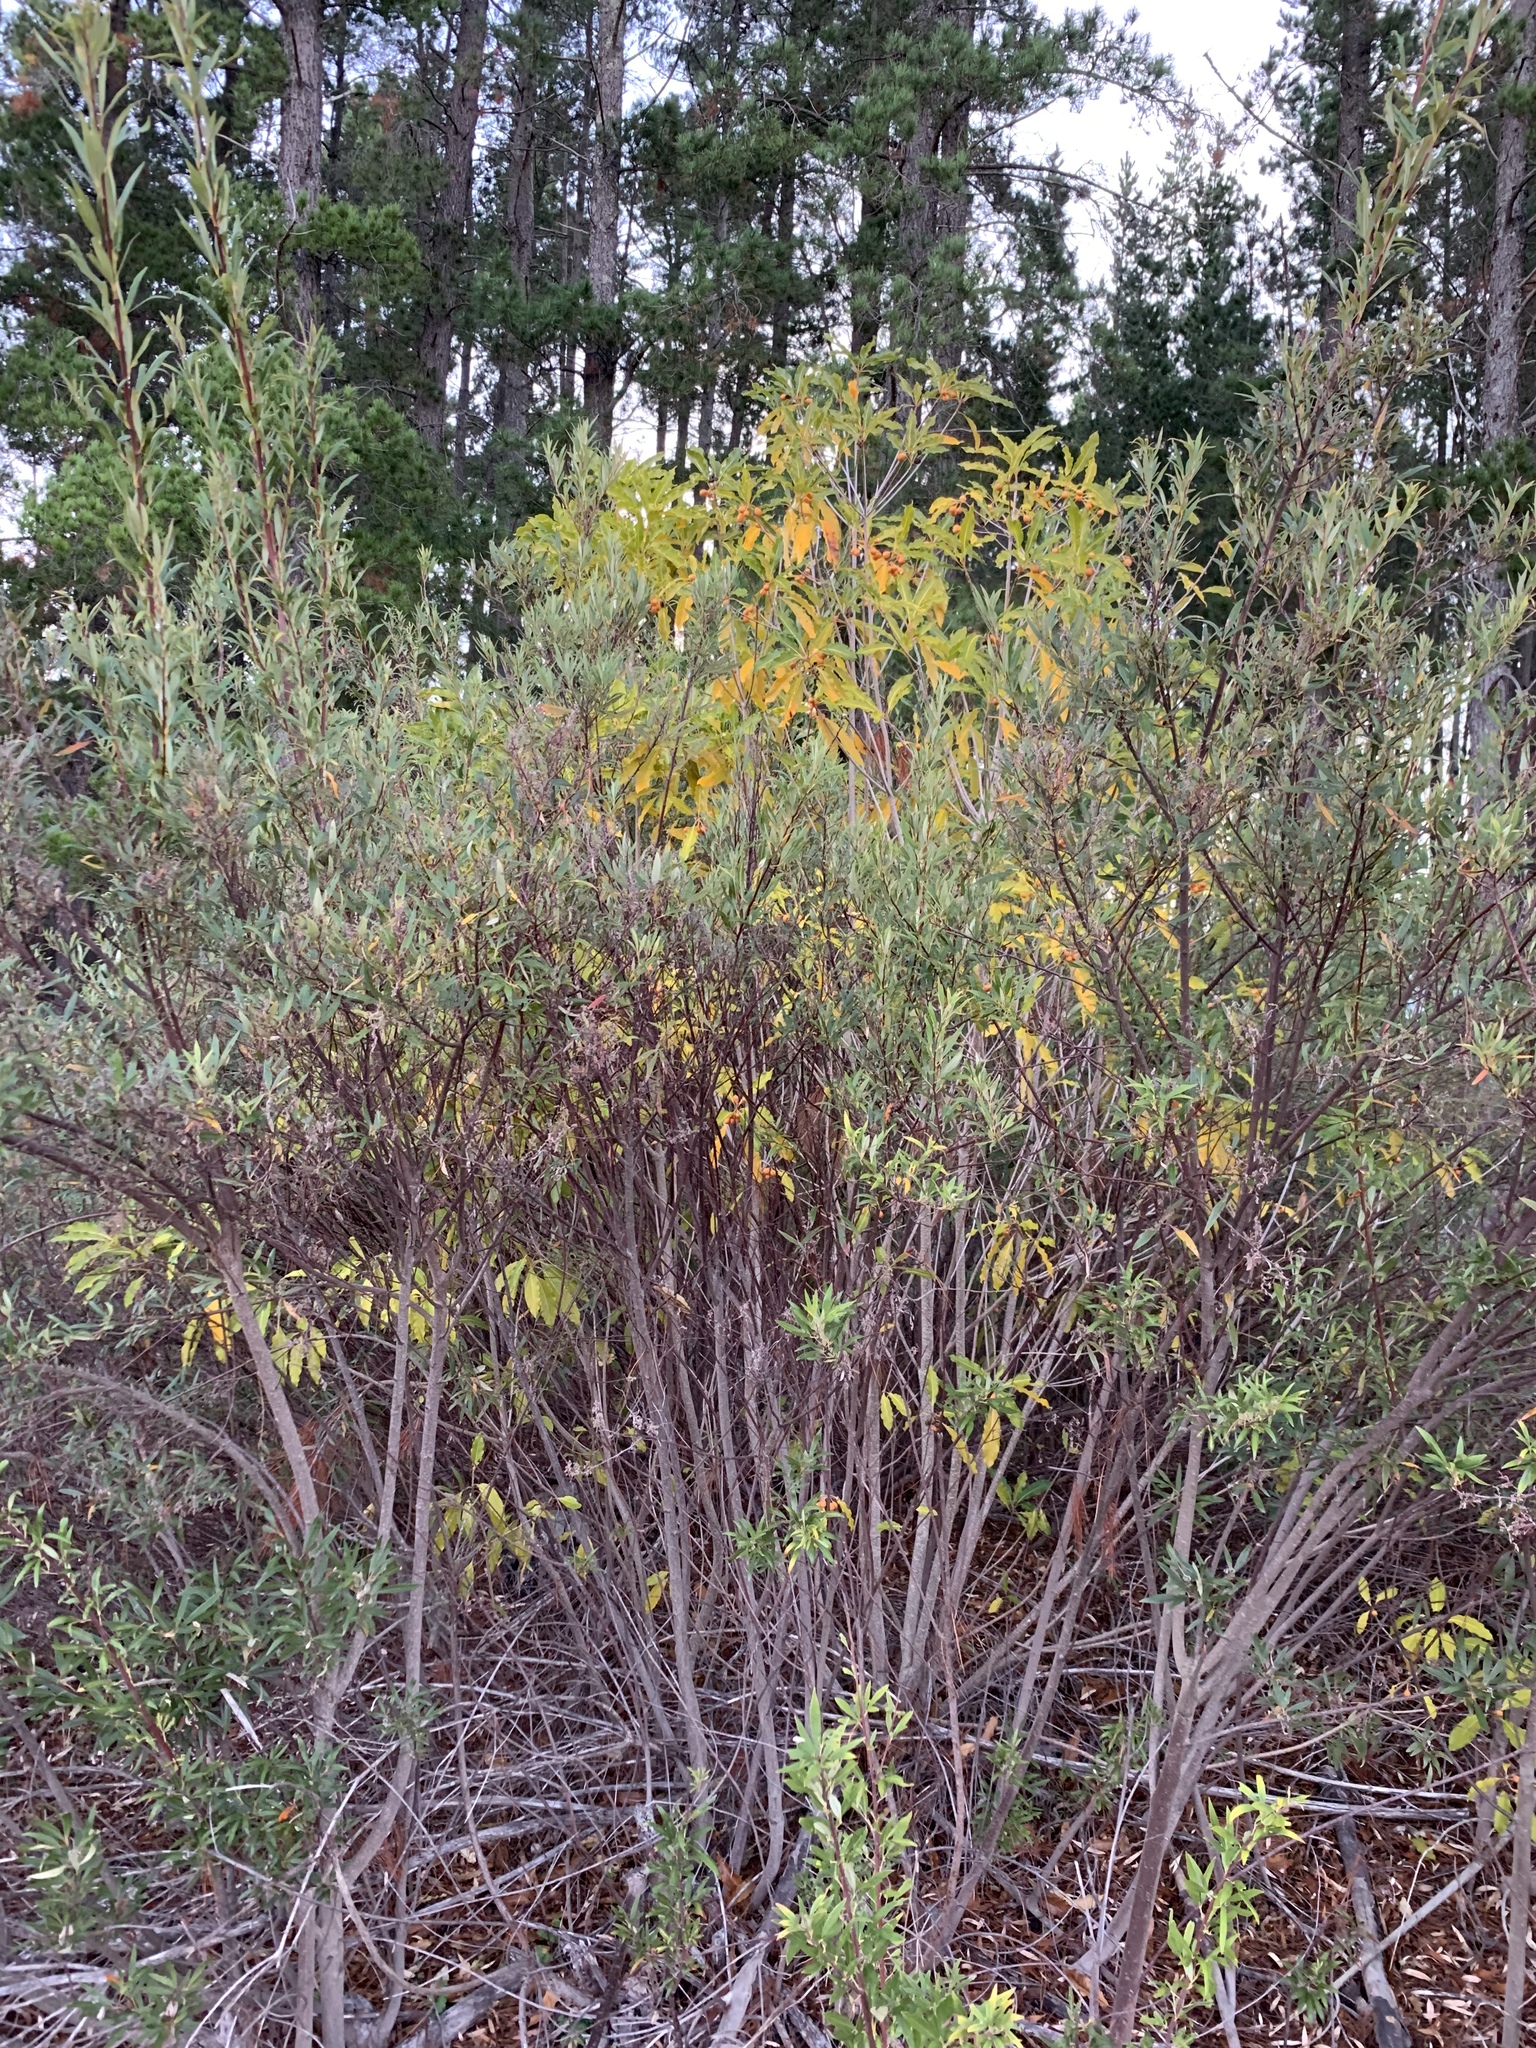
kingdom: Plantae
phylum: Tracheophyta
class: Magnoliopsida
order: Apiales
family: Pittosporaceae
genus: Pittosporum
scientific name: Pittosporum undulatum
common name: Australian cheesewood
